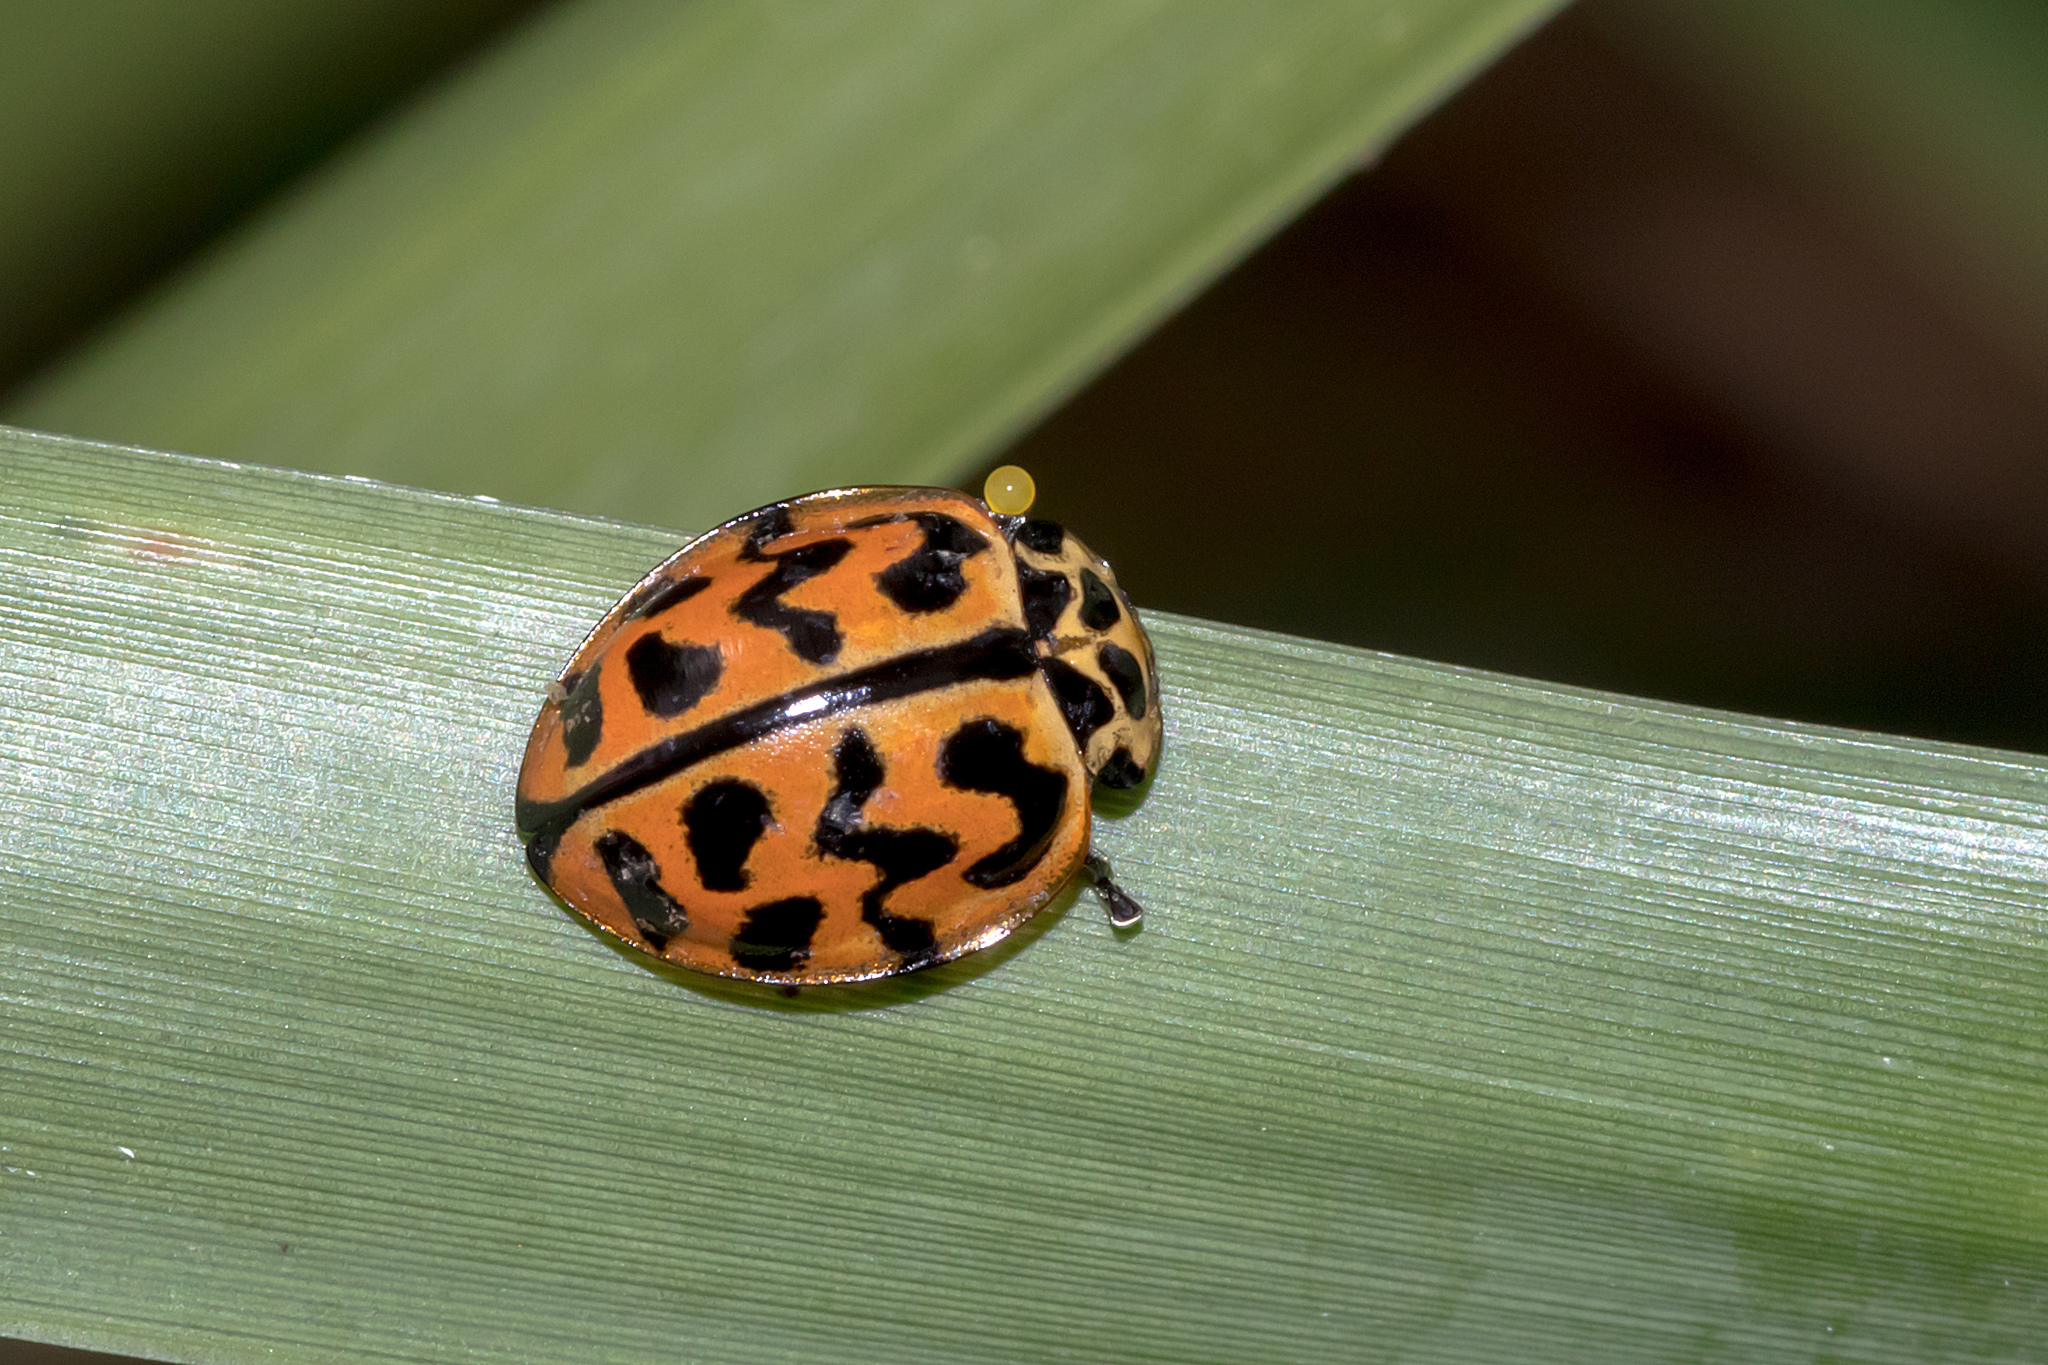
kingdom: Animalia
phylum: Arthropoda
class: Insecta
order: Coleoptera
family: Coccinellidae
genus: Cleobora
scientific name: Cleobora
